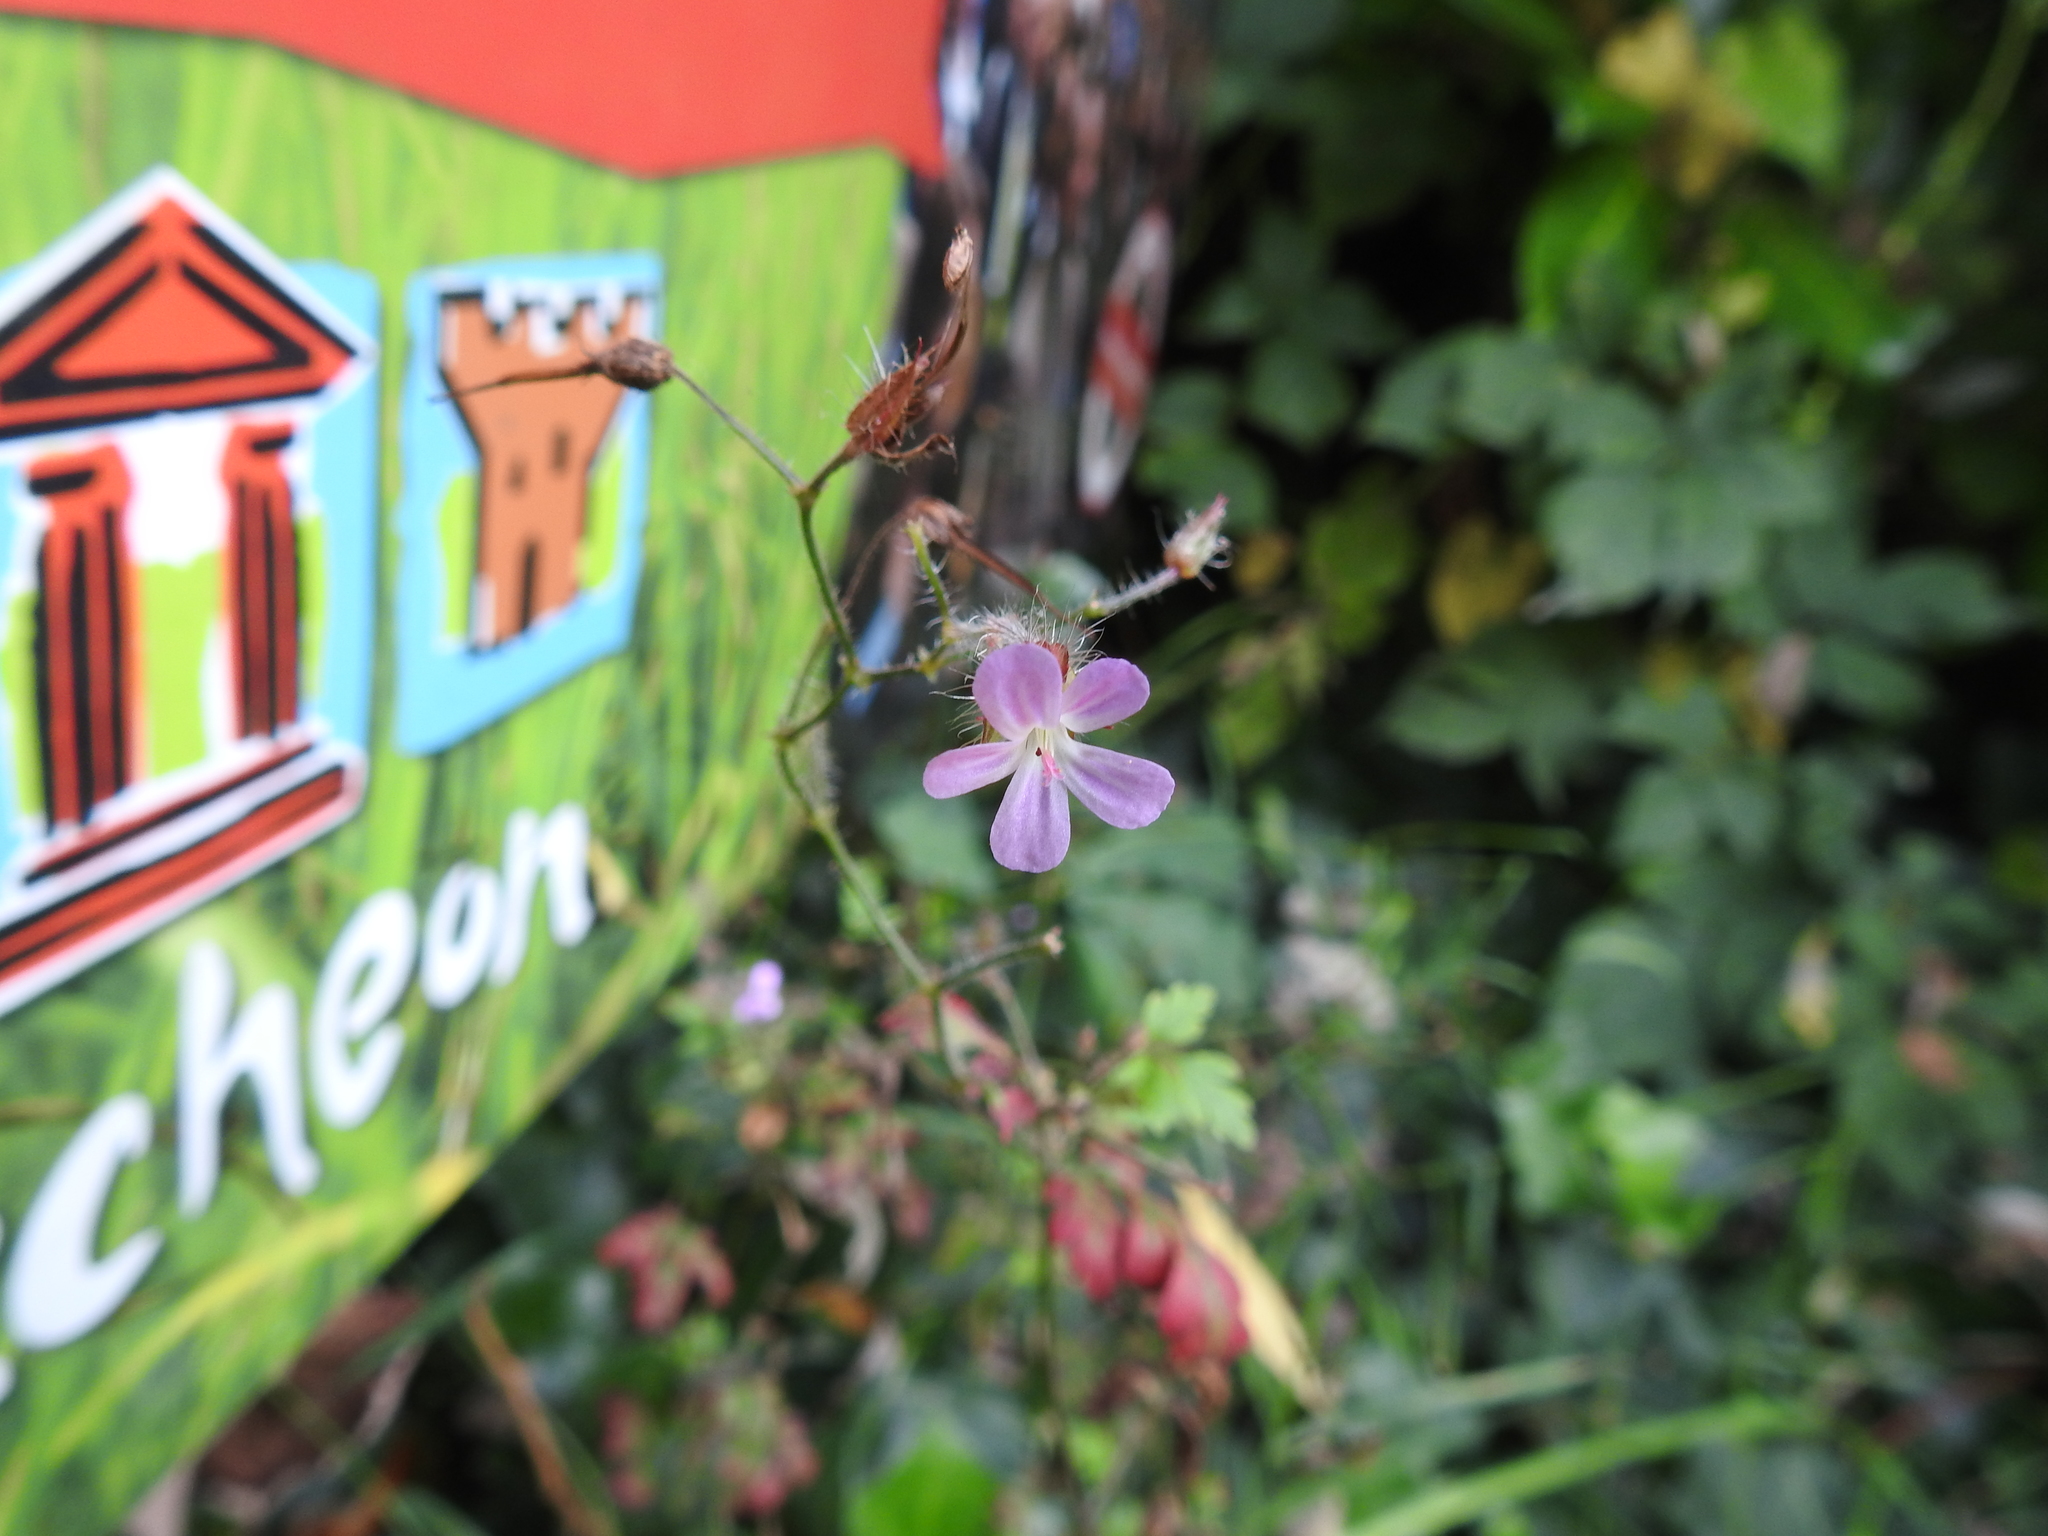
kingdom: Plantae
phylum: Tracheophyta
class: Magnoliopsida
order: Geraniales
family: Geraniaceae
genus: Geranium
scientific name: Geranium robertianum
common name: Herb-robert
